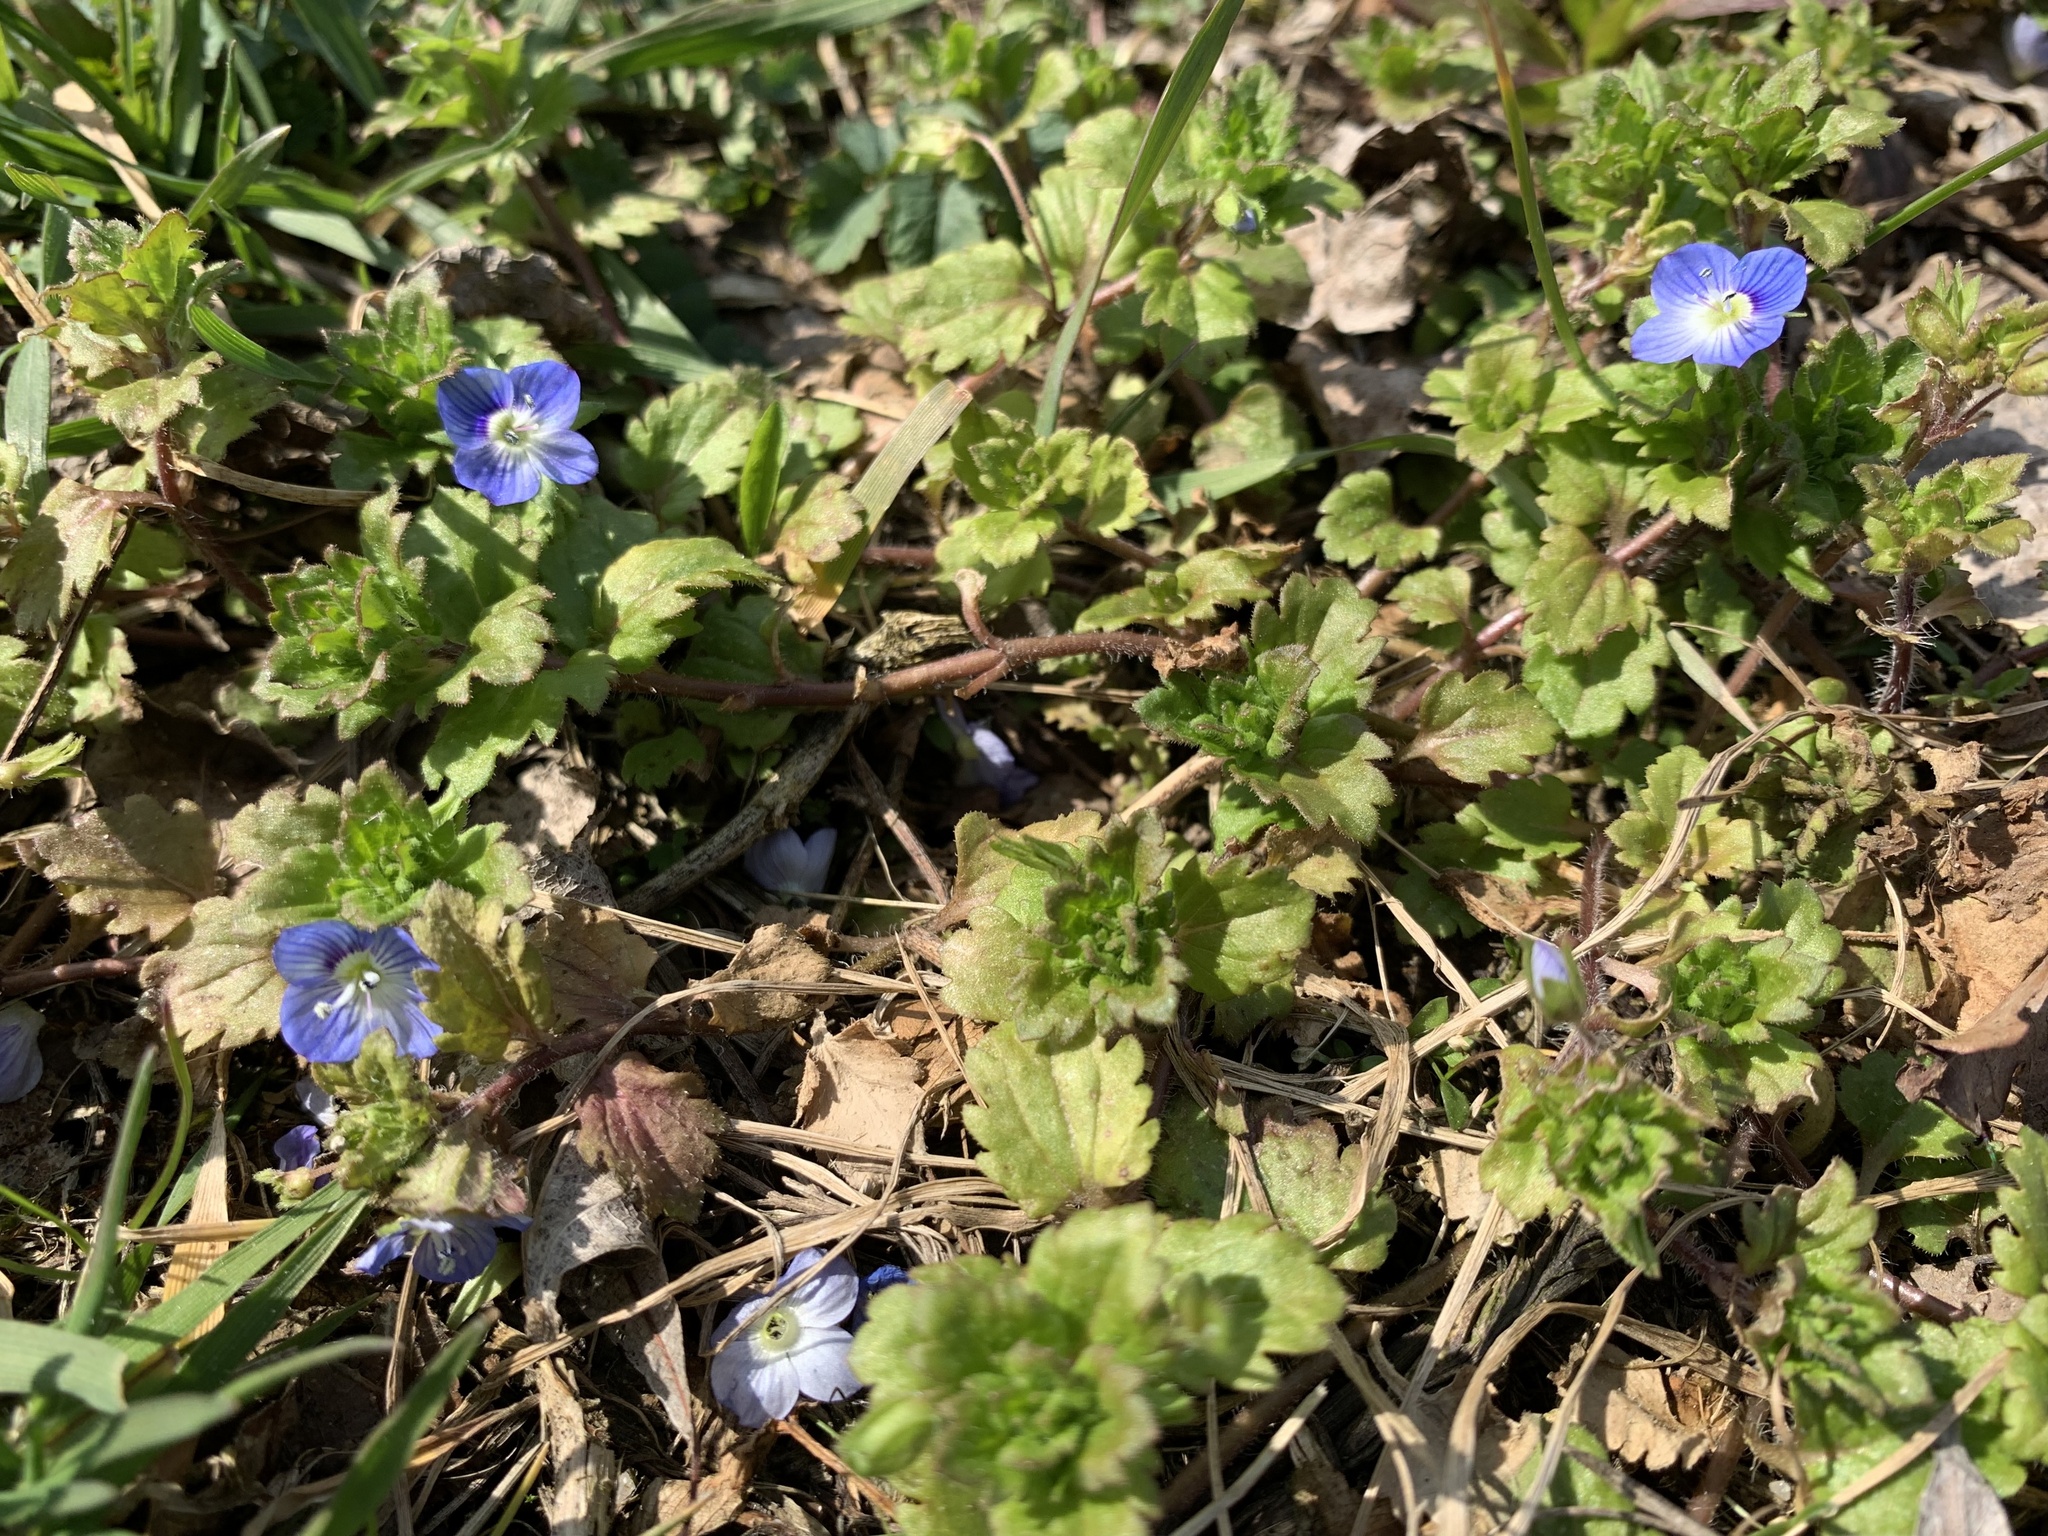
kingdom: Plantae
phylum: Tracheophyta
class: Magnoliopsida
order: Lamiales
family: Plantaginaceae
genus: Veronica
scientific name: Veronica persica
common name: Common field-speedwell
